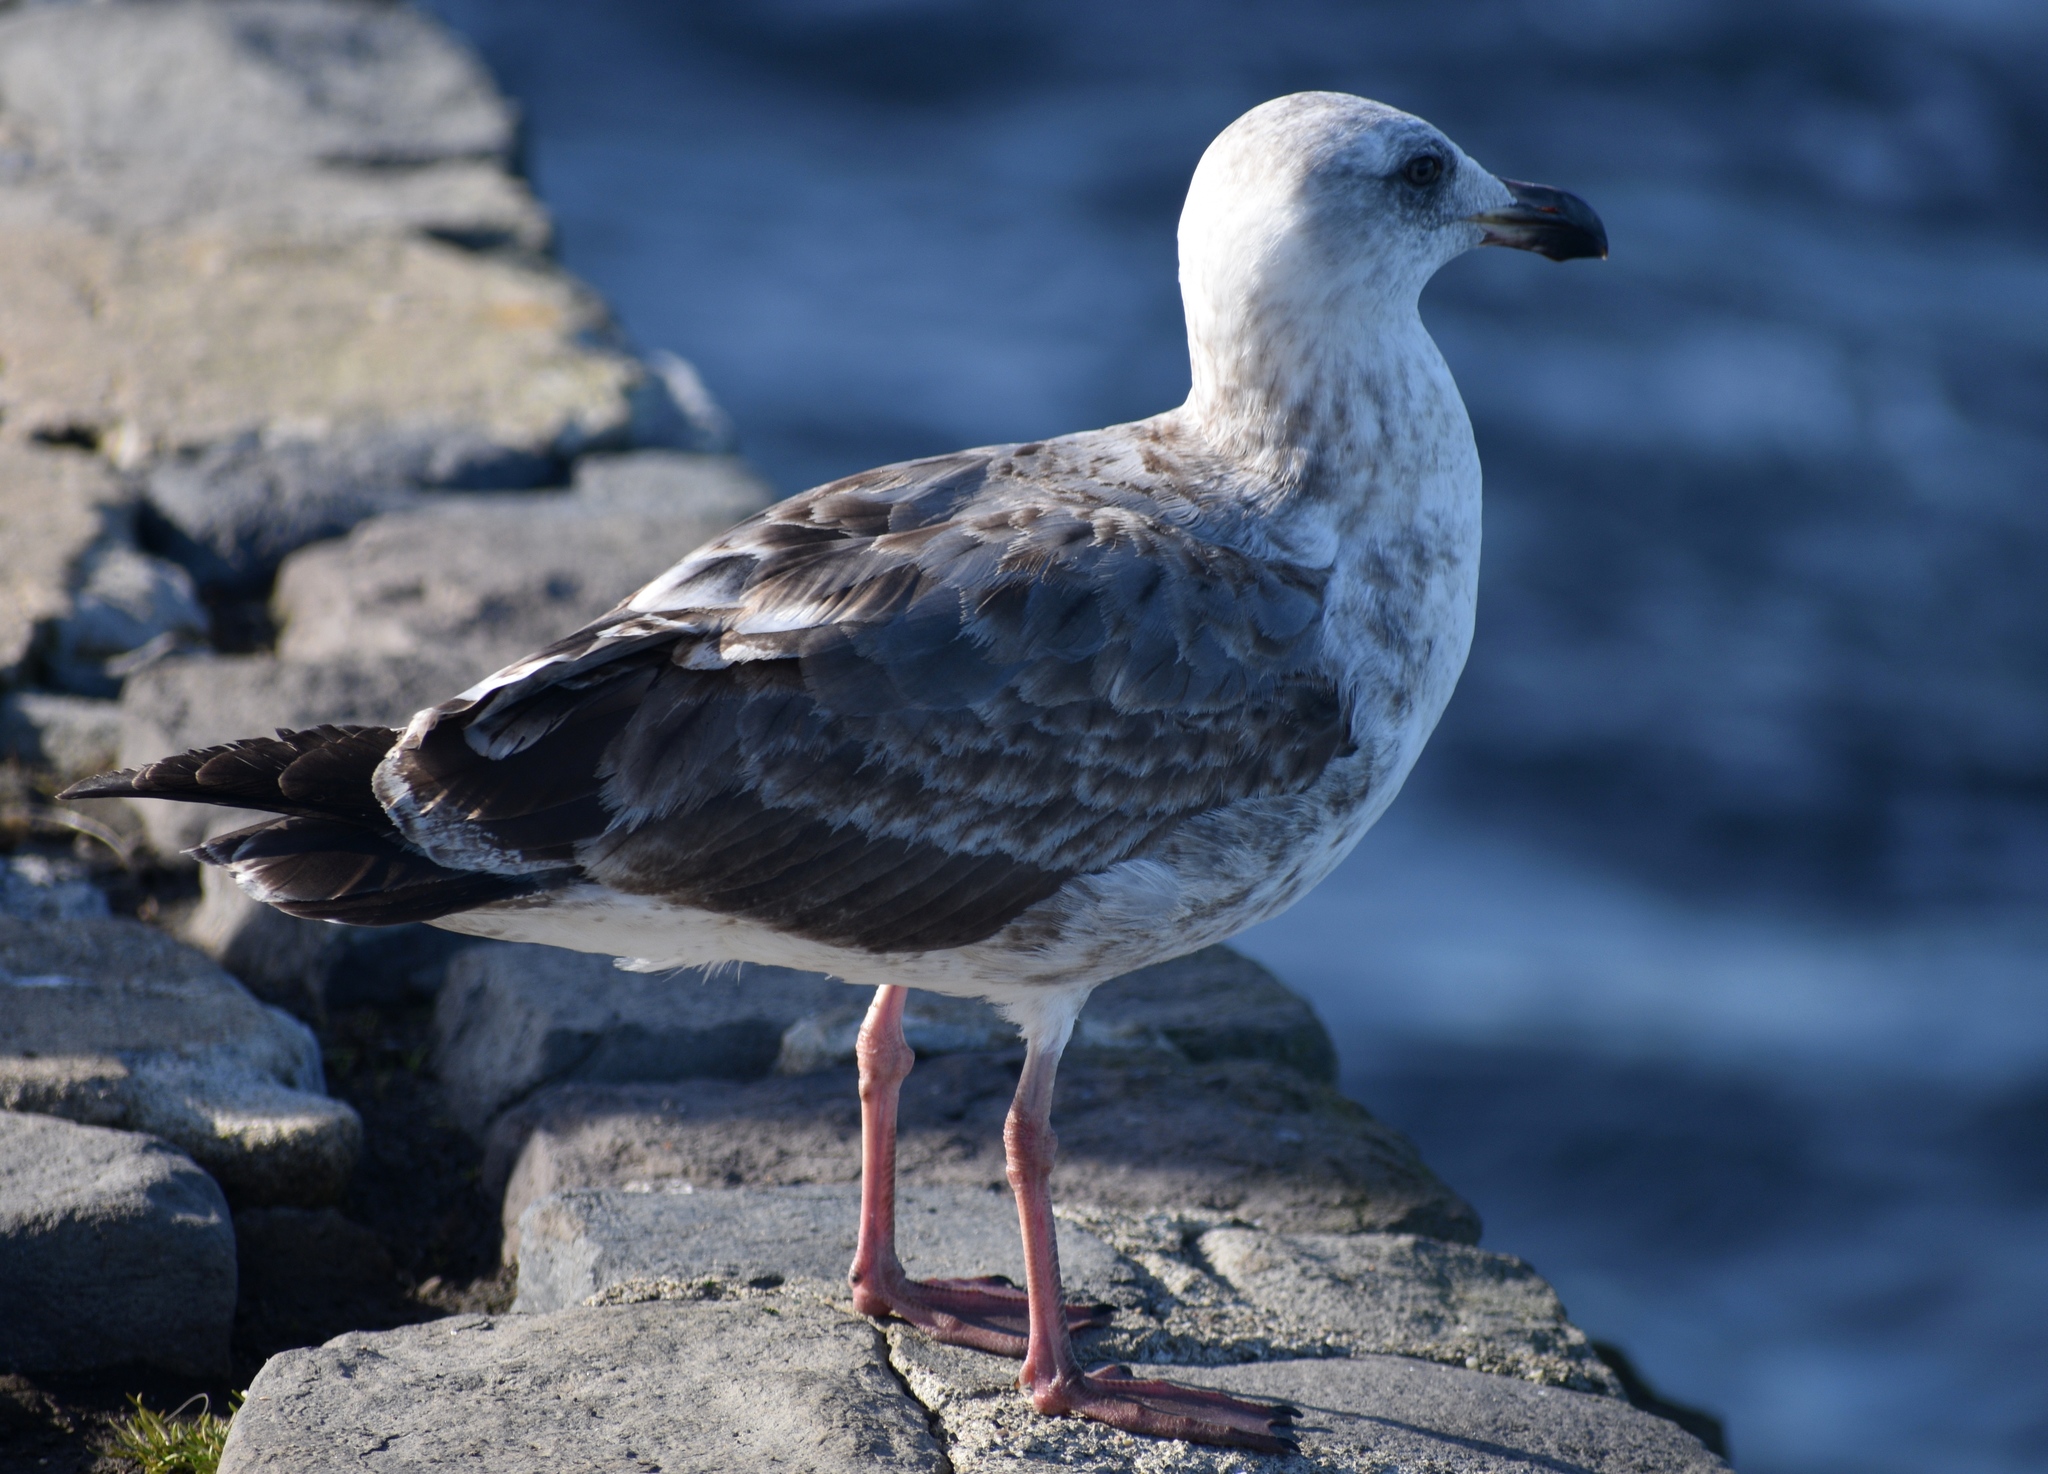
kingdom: Animalia
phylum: Chordata
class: Aves
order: Charadriiformes
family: Laridae
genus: Larus
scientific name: Larus occidentalis
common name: Western gull
